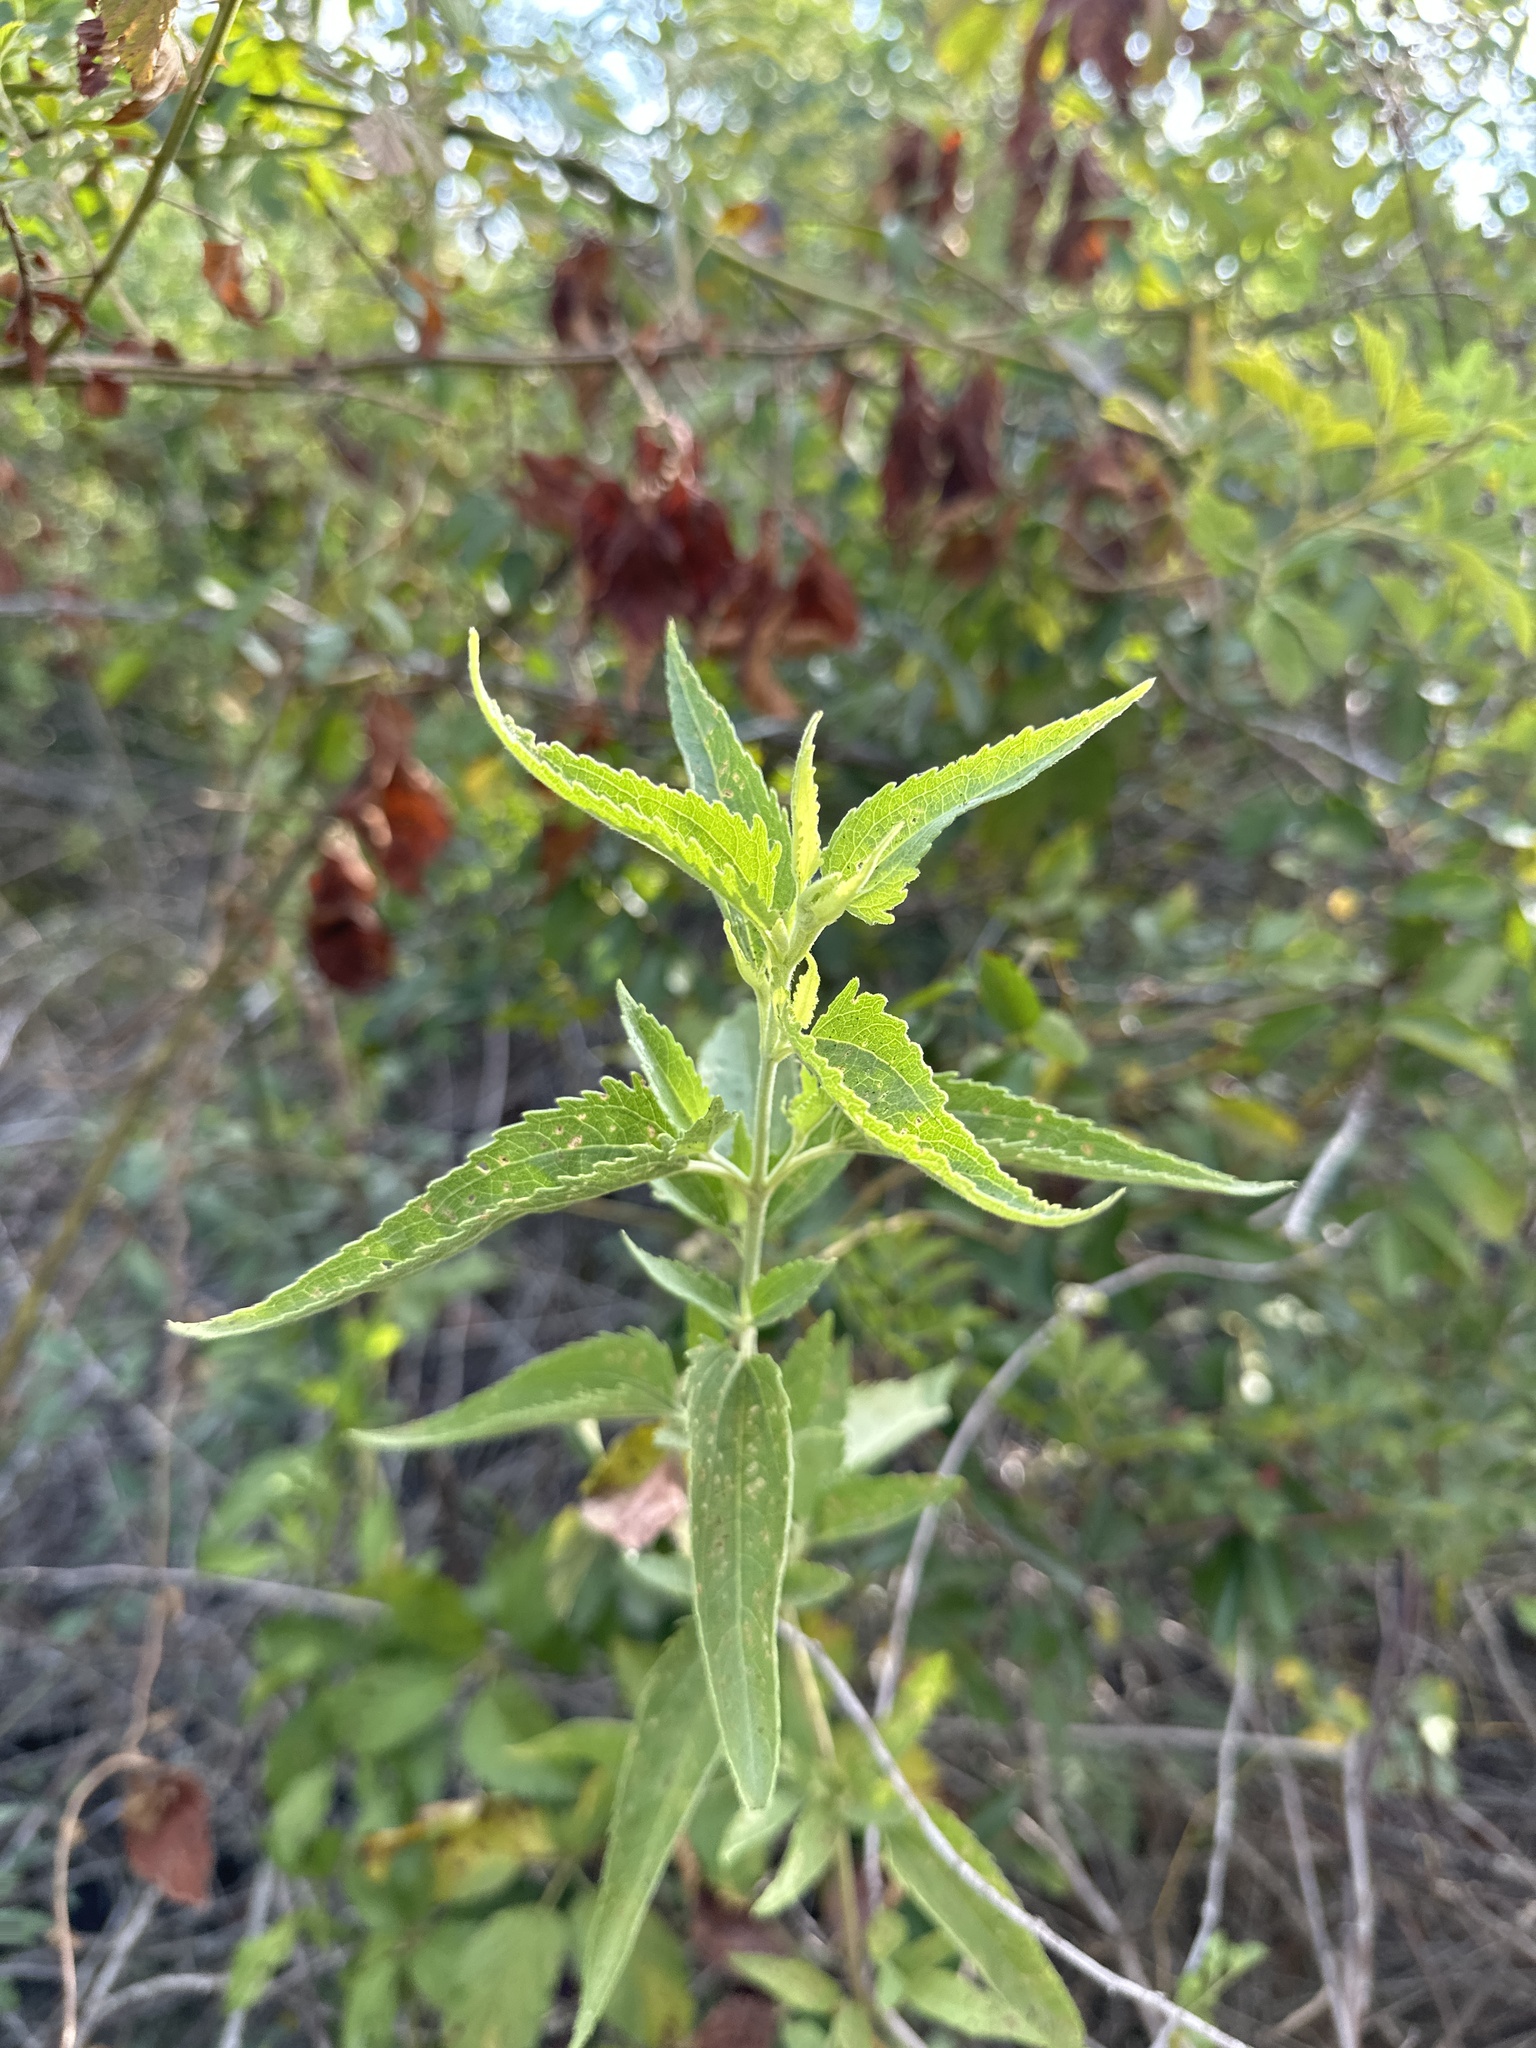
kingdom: Plantae
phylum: Tracheophyta
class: Magnoliopsida
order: Asterales
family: Asteraceae
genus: Eupatorium
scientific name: Eupatorium serotinum
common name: Late boneset
